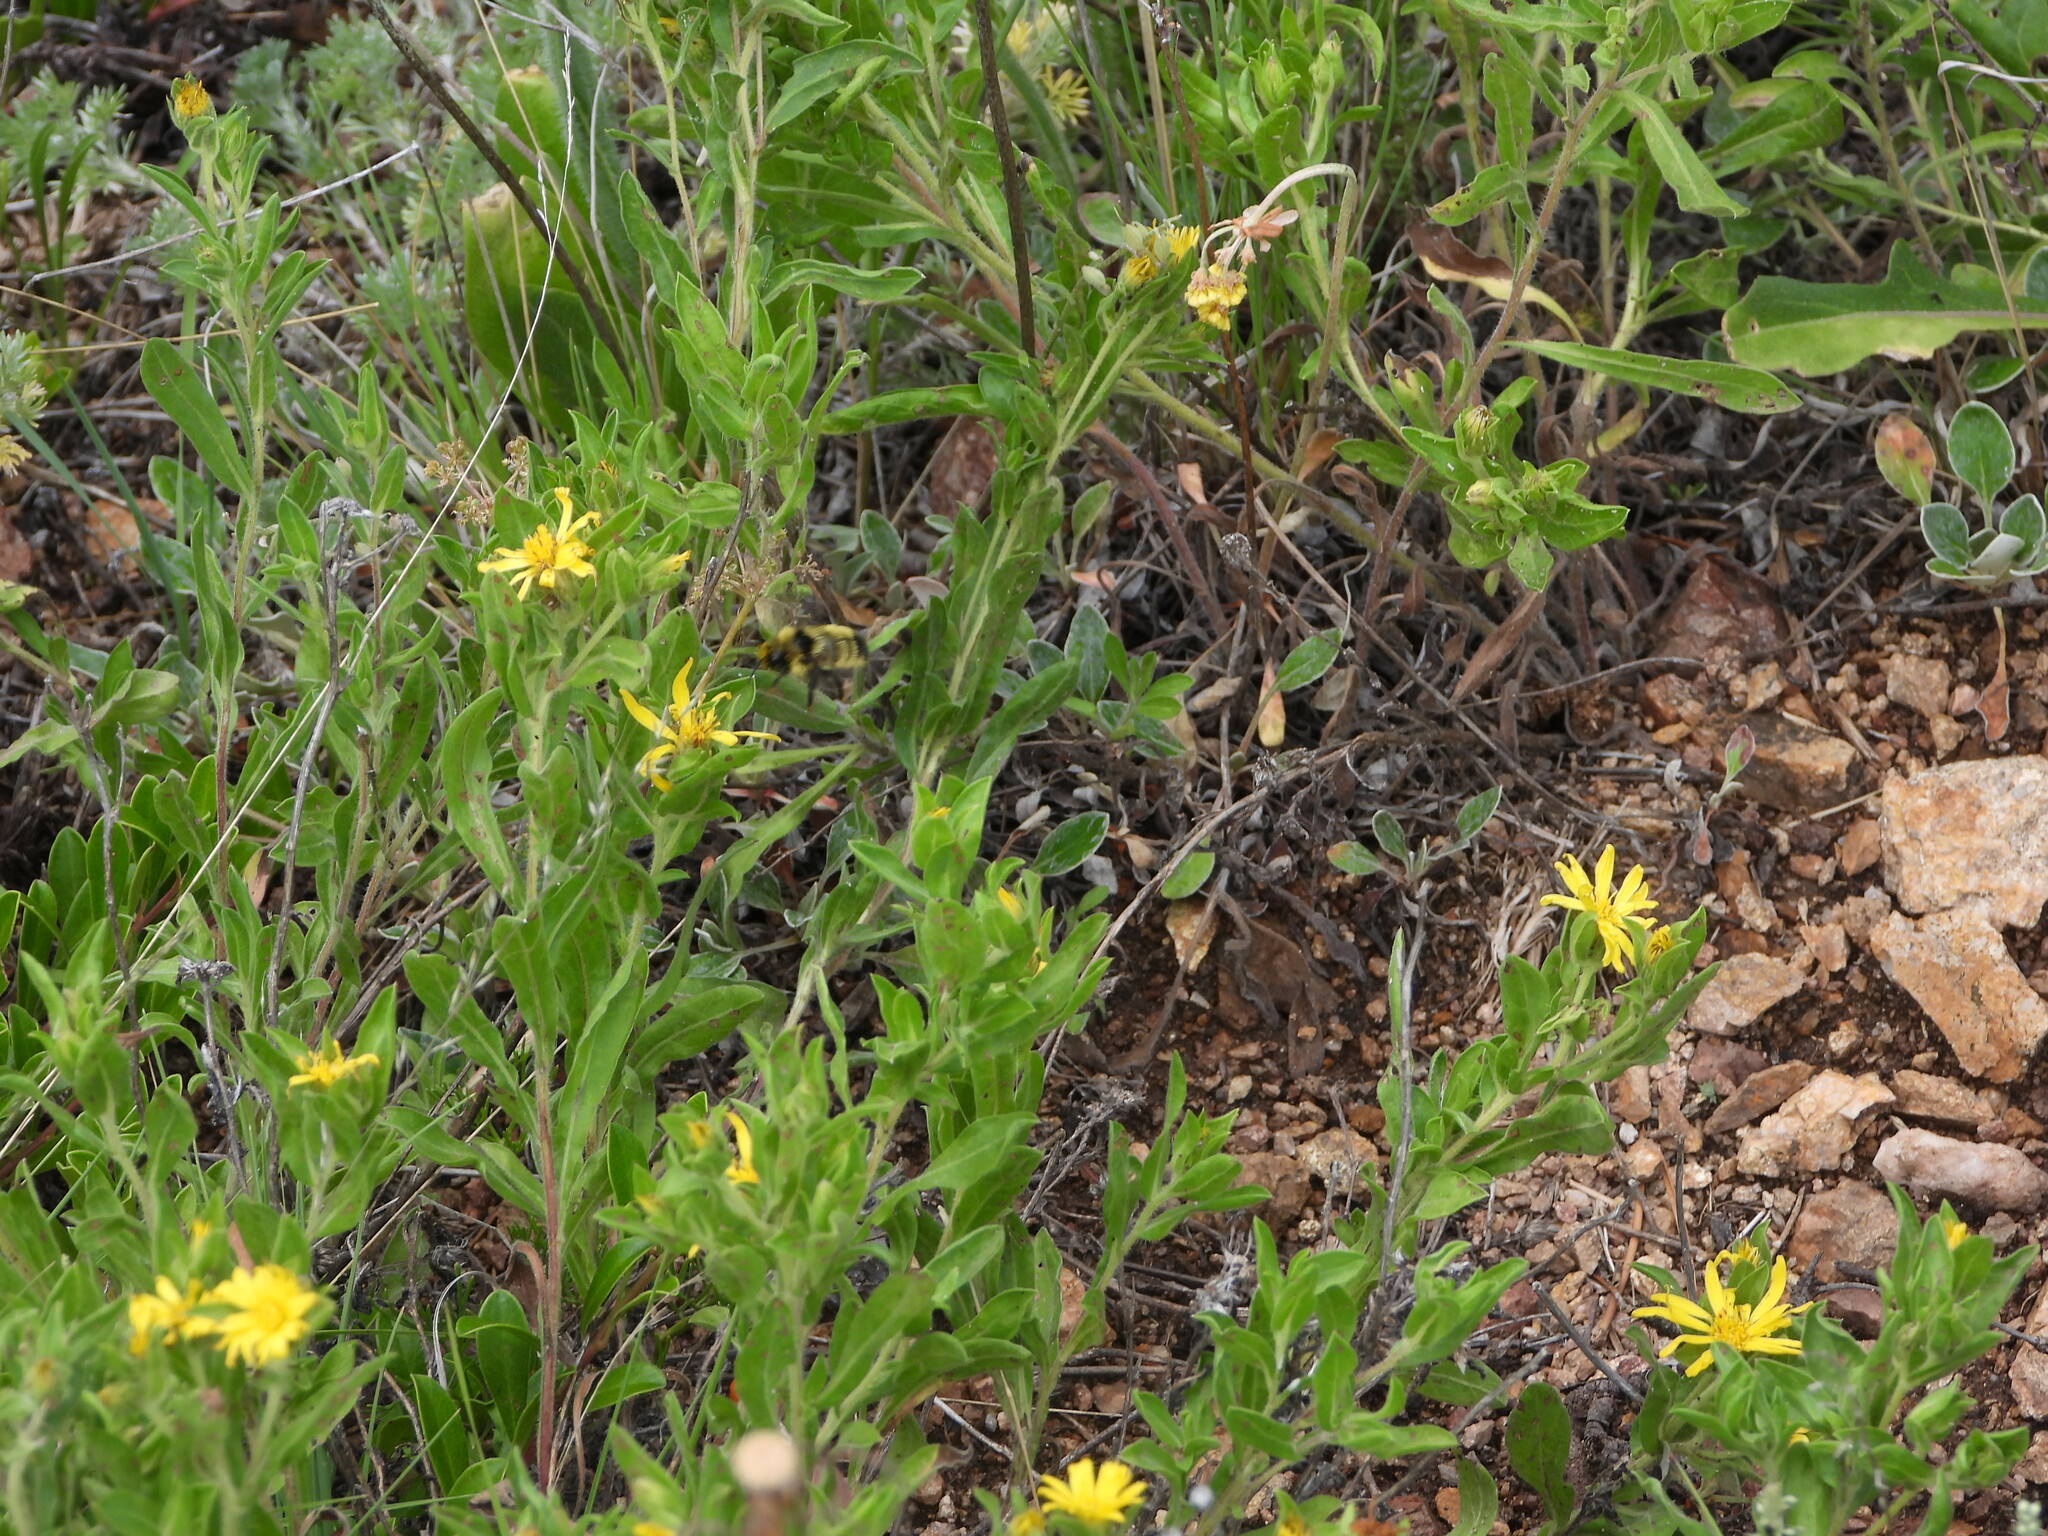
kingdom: Plantae
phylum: Tracheophyta
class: Magnoliopsida
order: Asterales
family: Asteraceae
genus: Heterotheca
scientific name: Heterotheca resinolens
